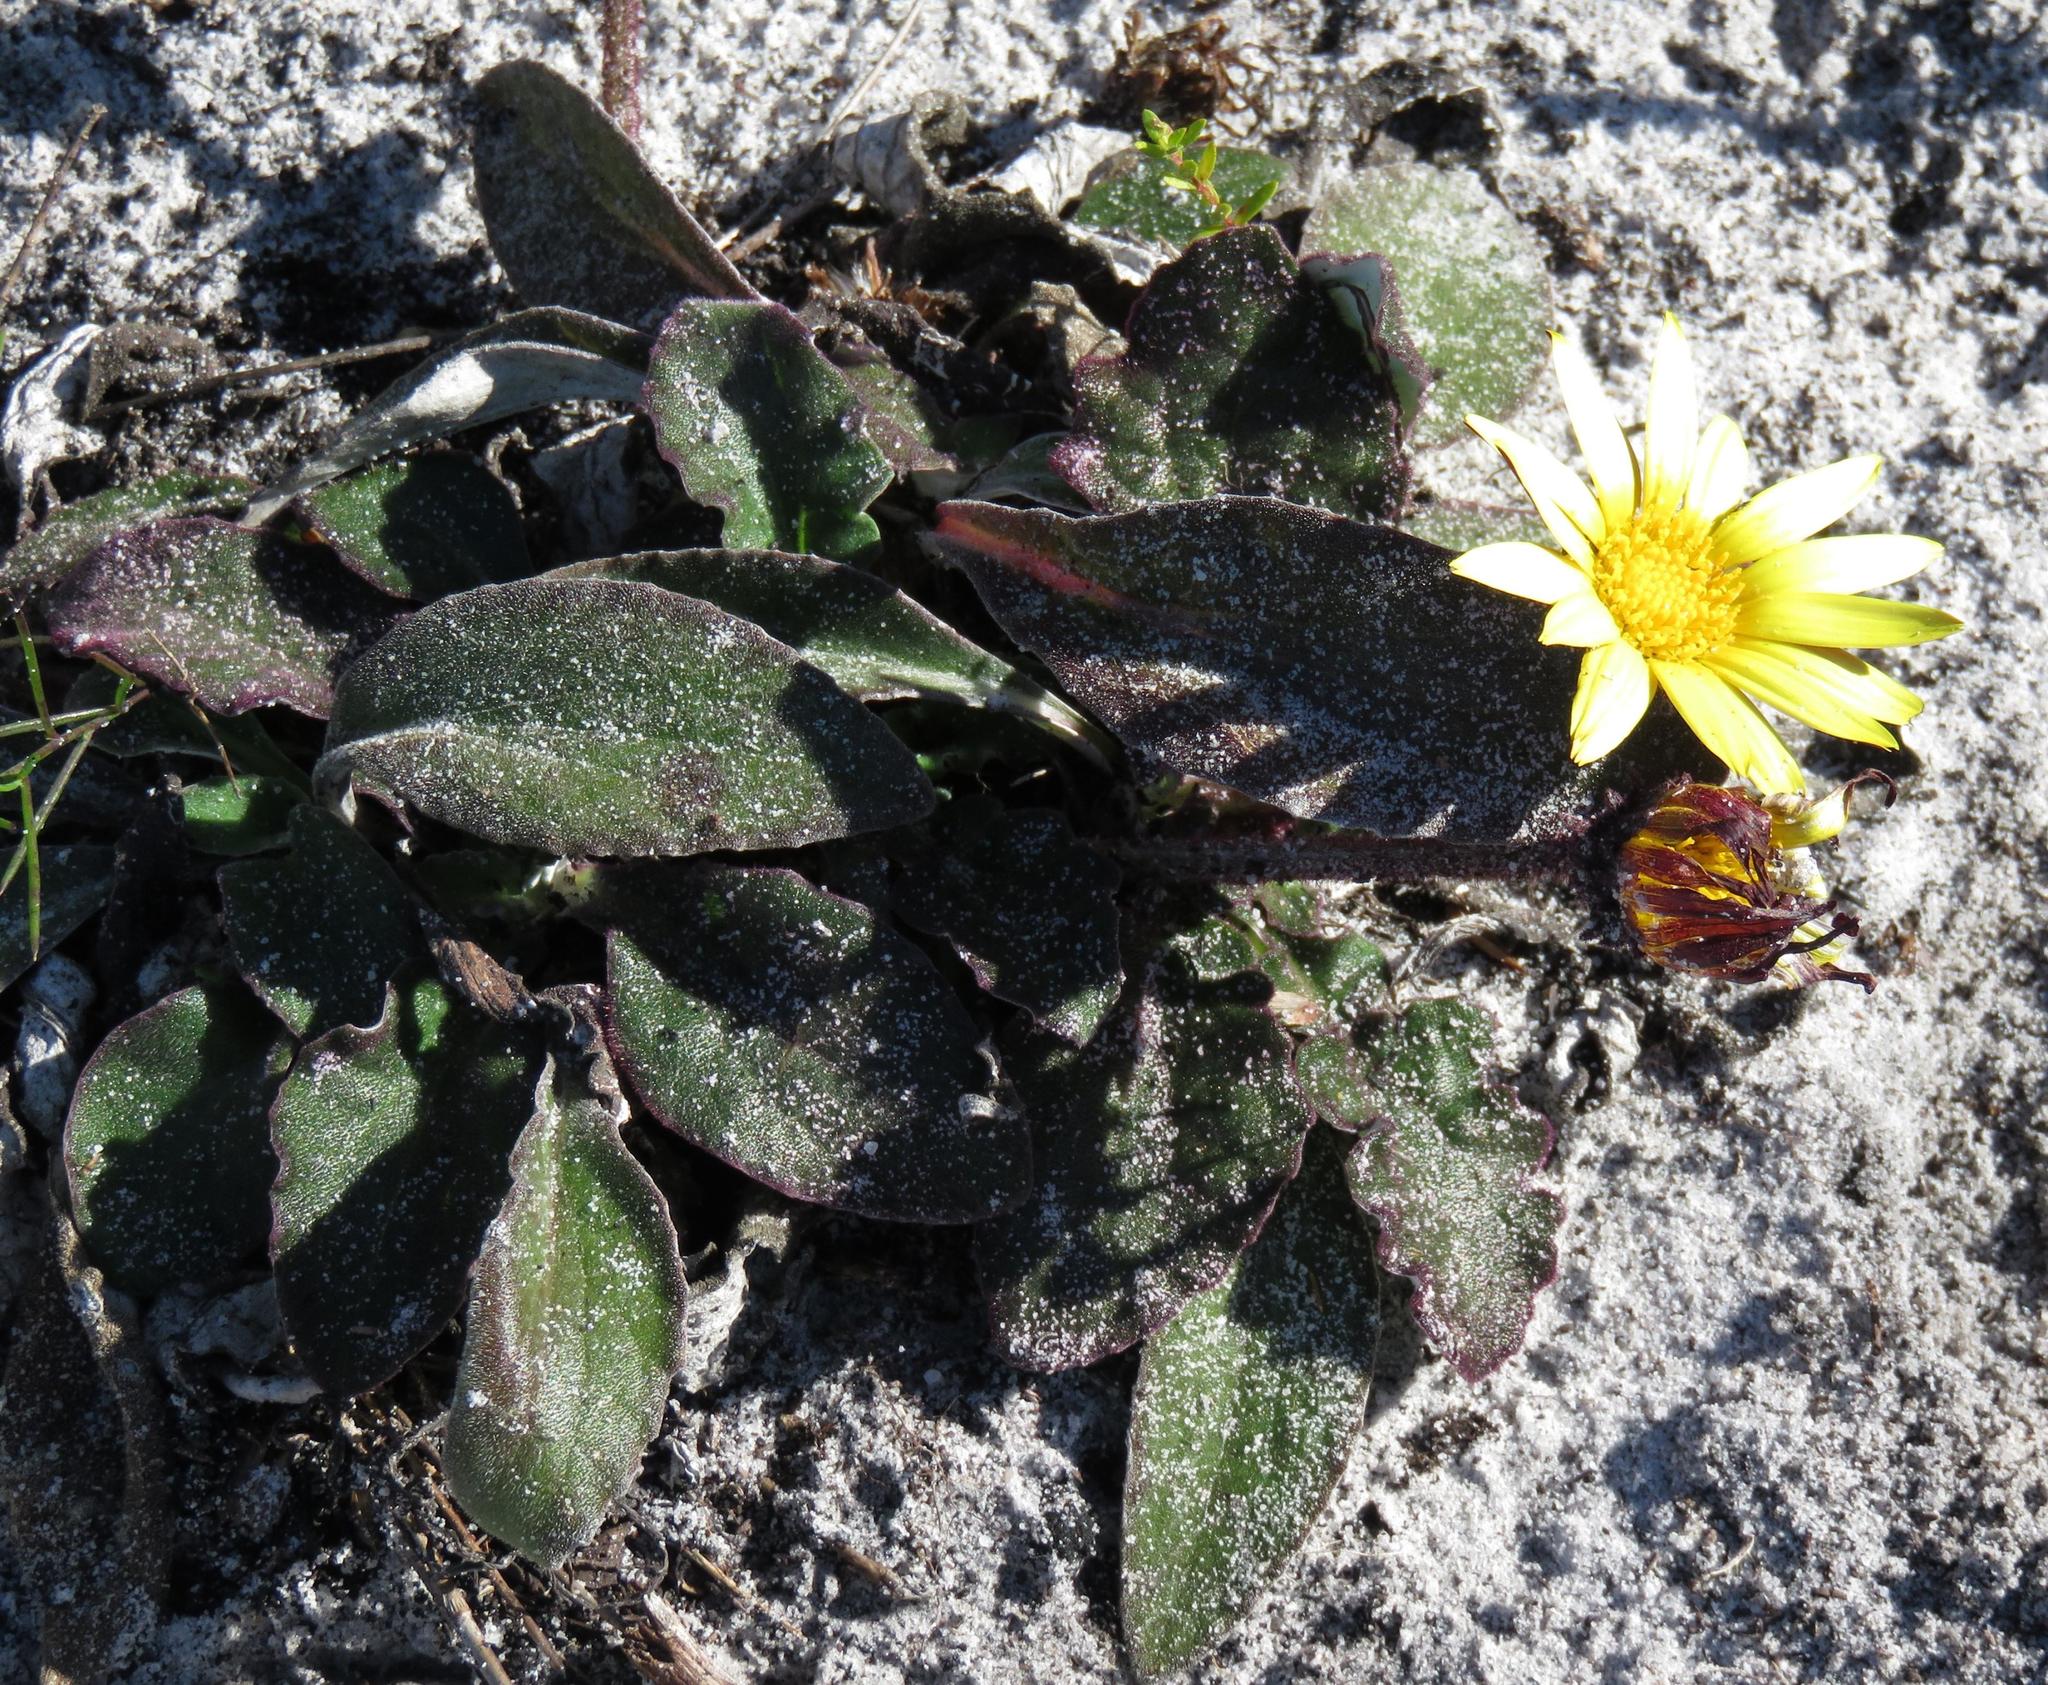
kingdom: Plantae
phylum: Tracheophyta
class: Magnoliopsida
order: Asterales
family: Asteraceae
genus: Haplocarpha
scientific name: Haplocarpha lanata
